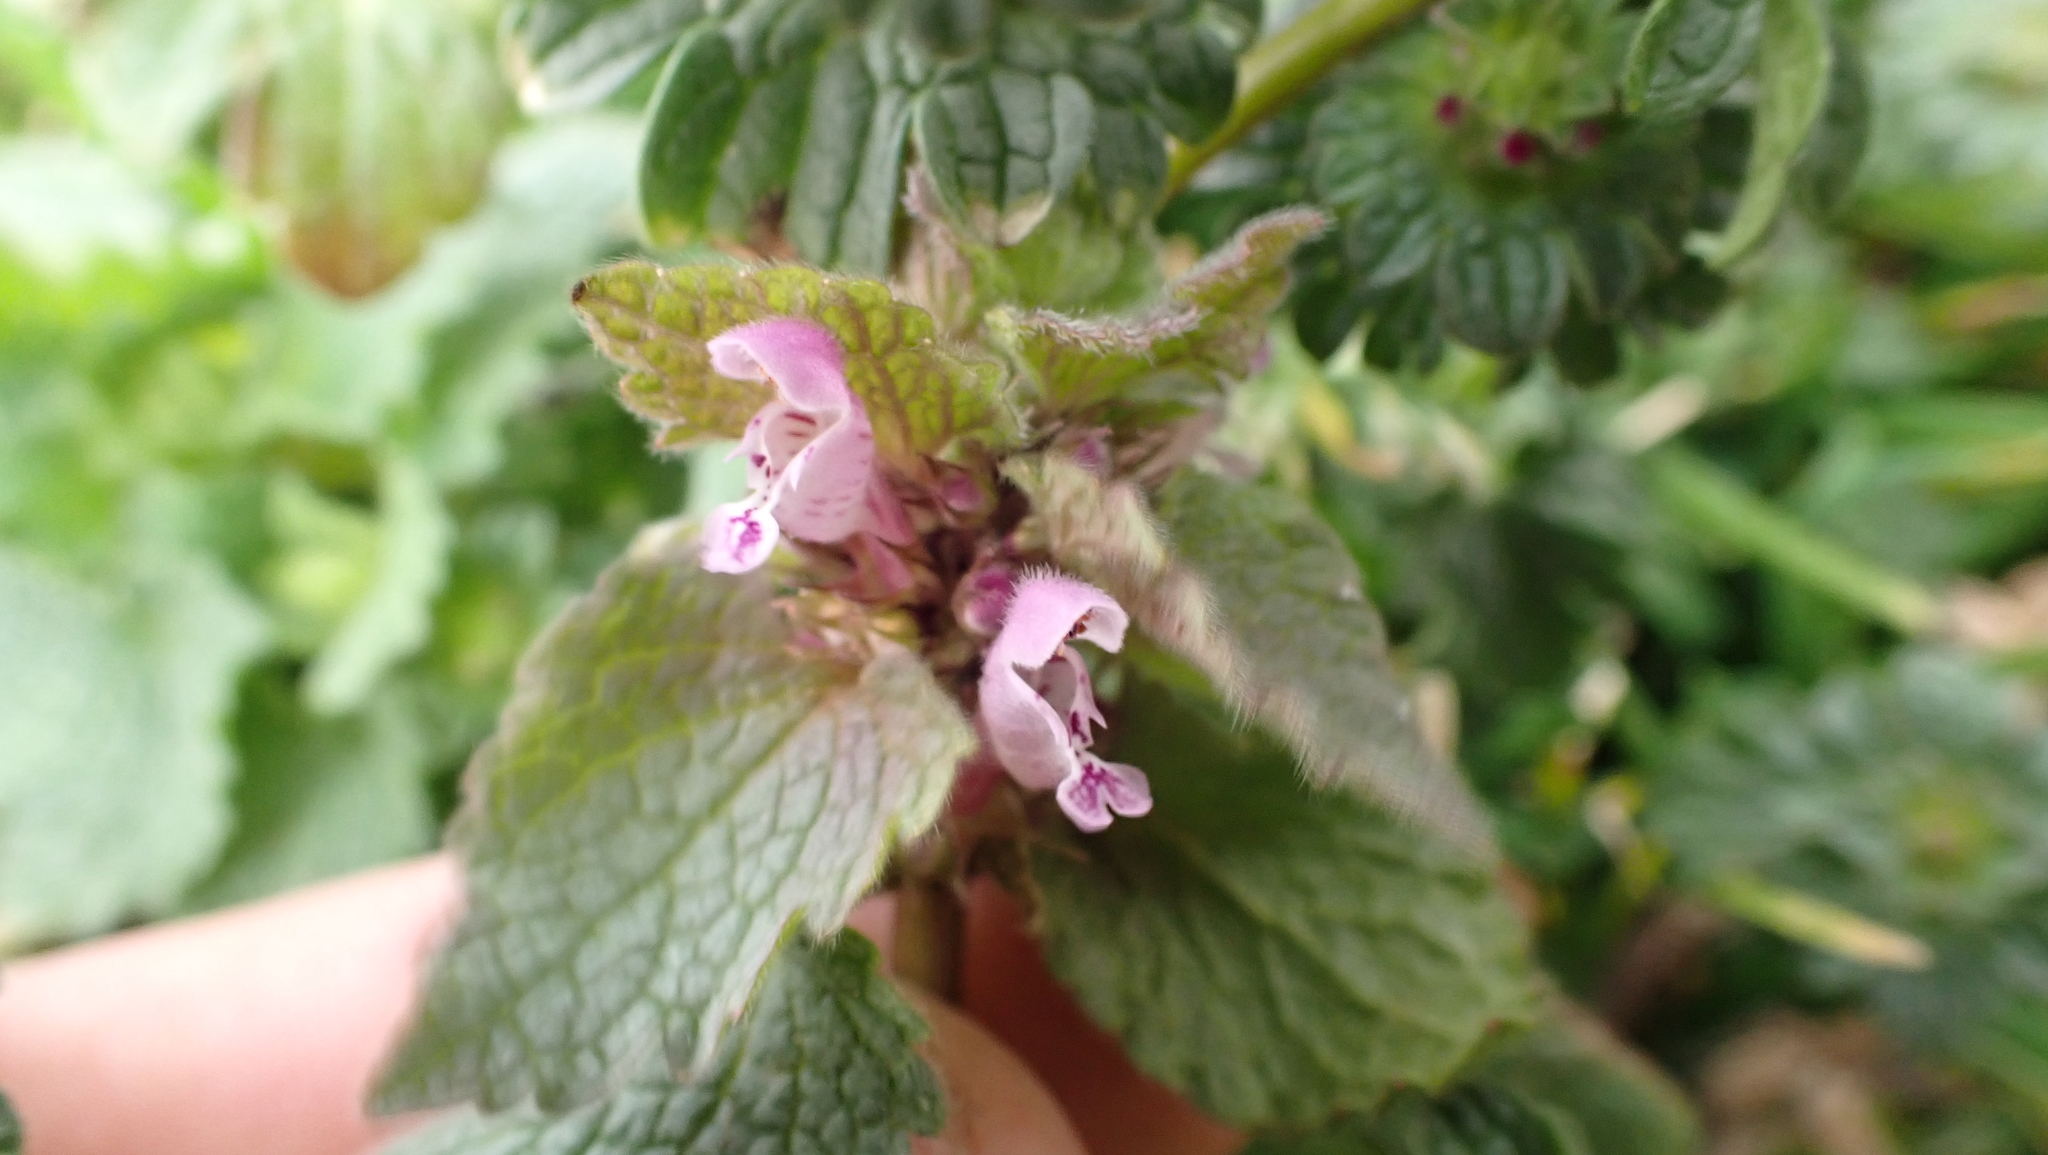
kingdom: Plantae
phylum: Tracheophyta
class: Magnoliopsida
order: Lamiales
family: Lamiaceae
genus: Lamium
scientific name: Lamium purpureum
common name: Red dead-nettle
